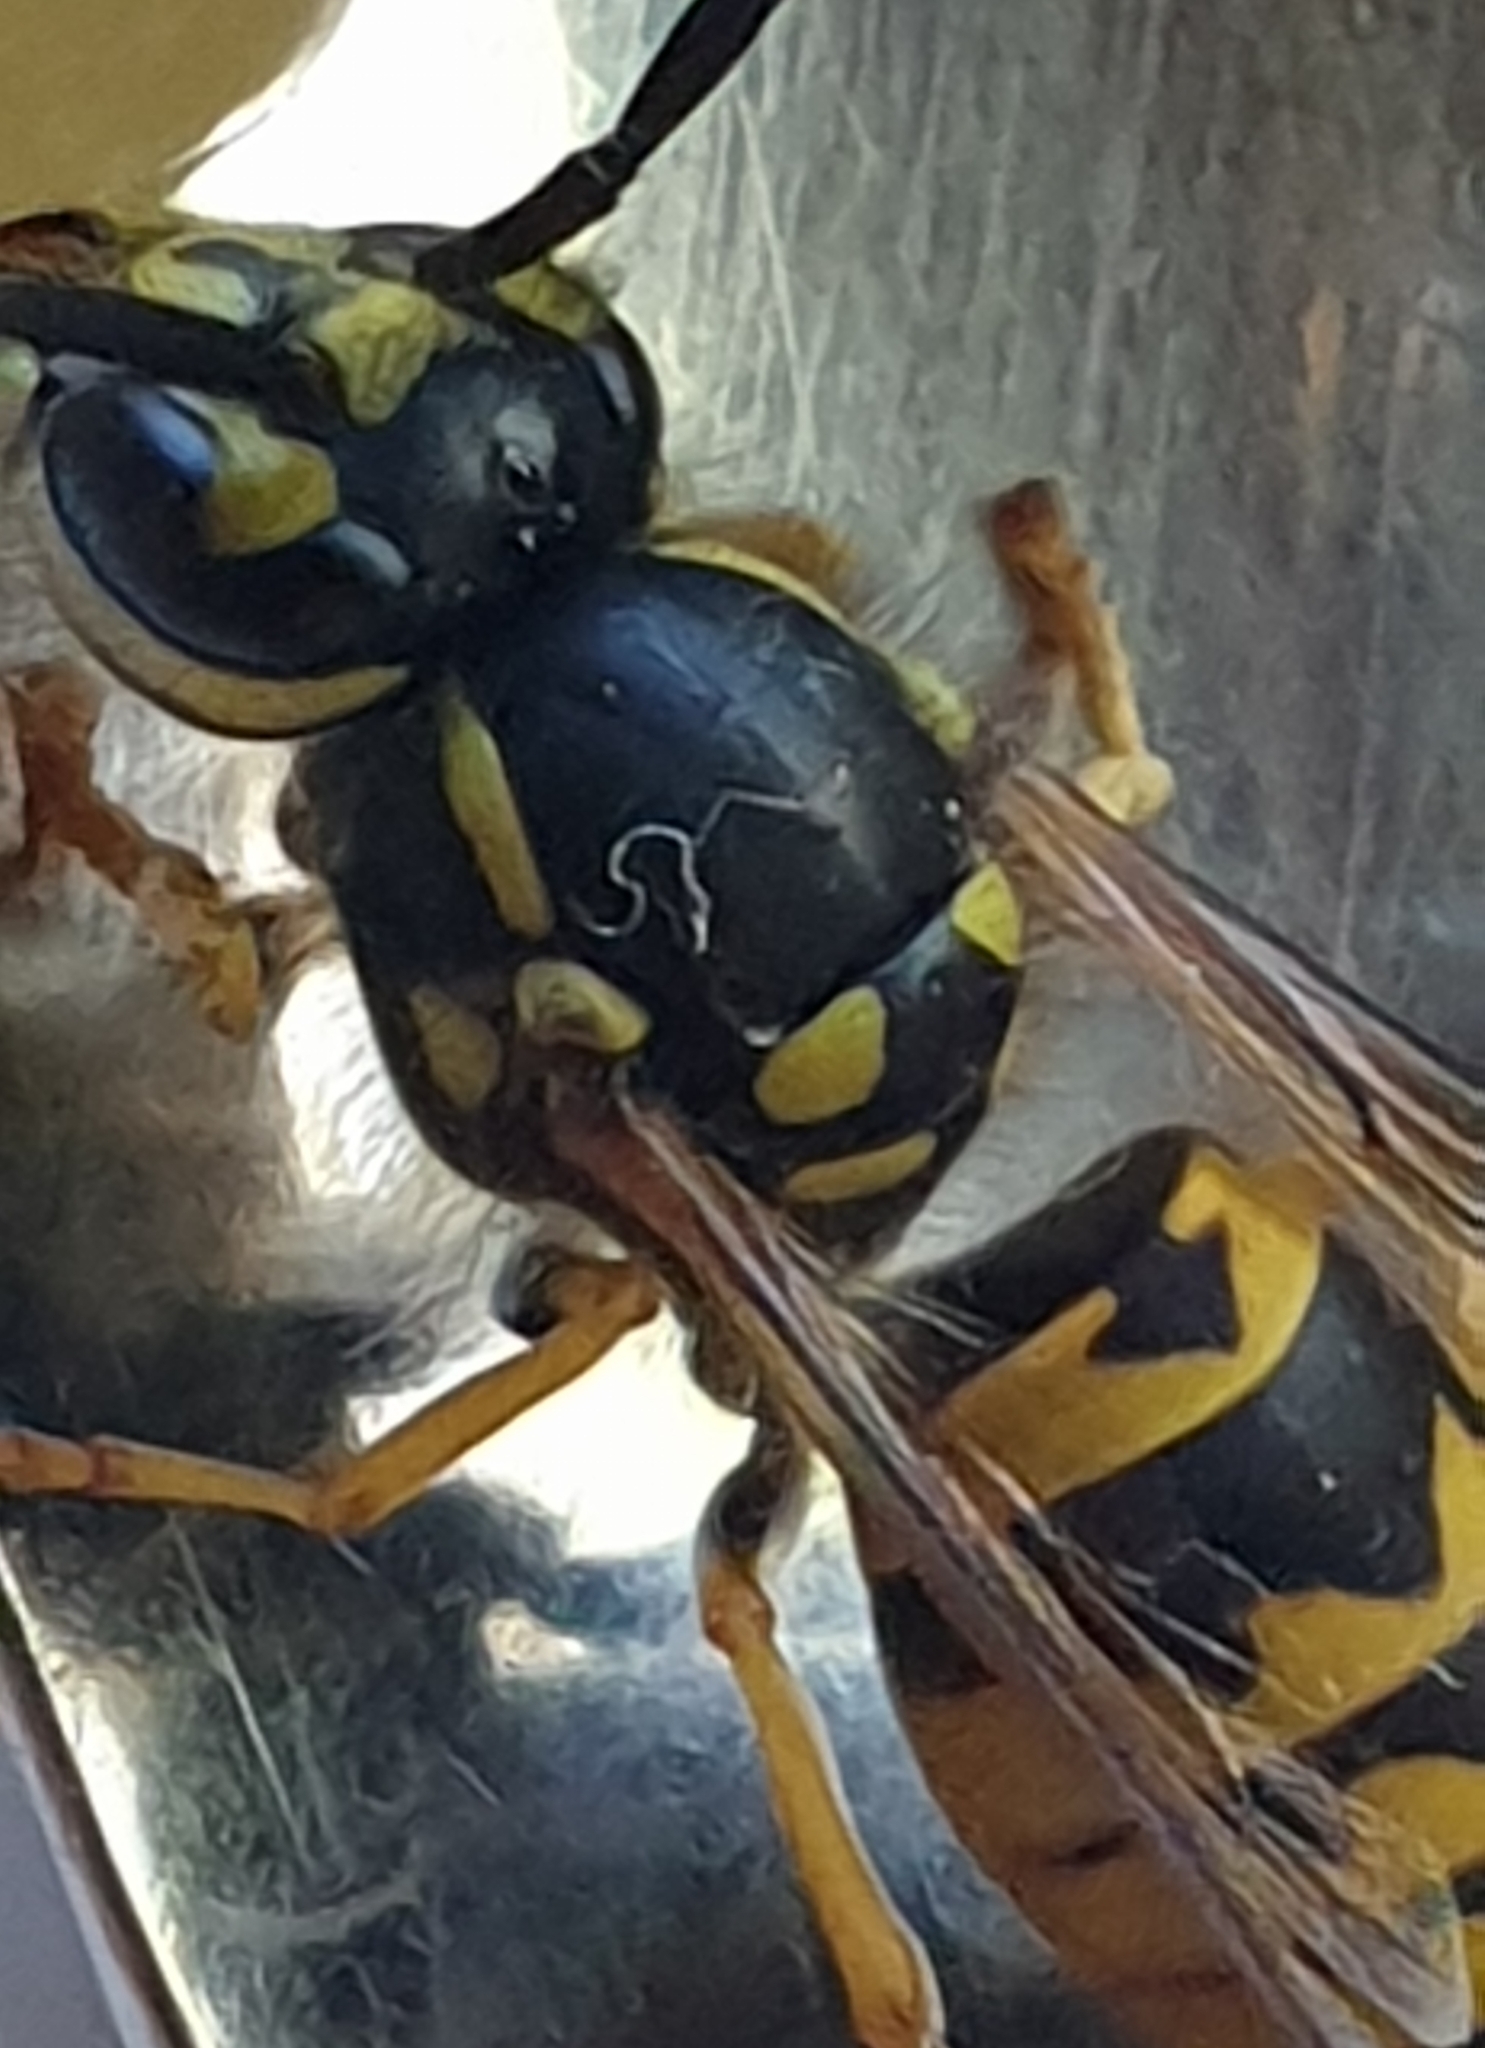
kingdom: Animalia
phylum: Arthropoda
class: Insecta
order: Hymenoptera
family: Vespidae
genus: Vespula
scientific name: Vespula germanica
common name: German wasp
